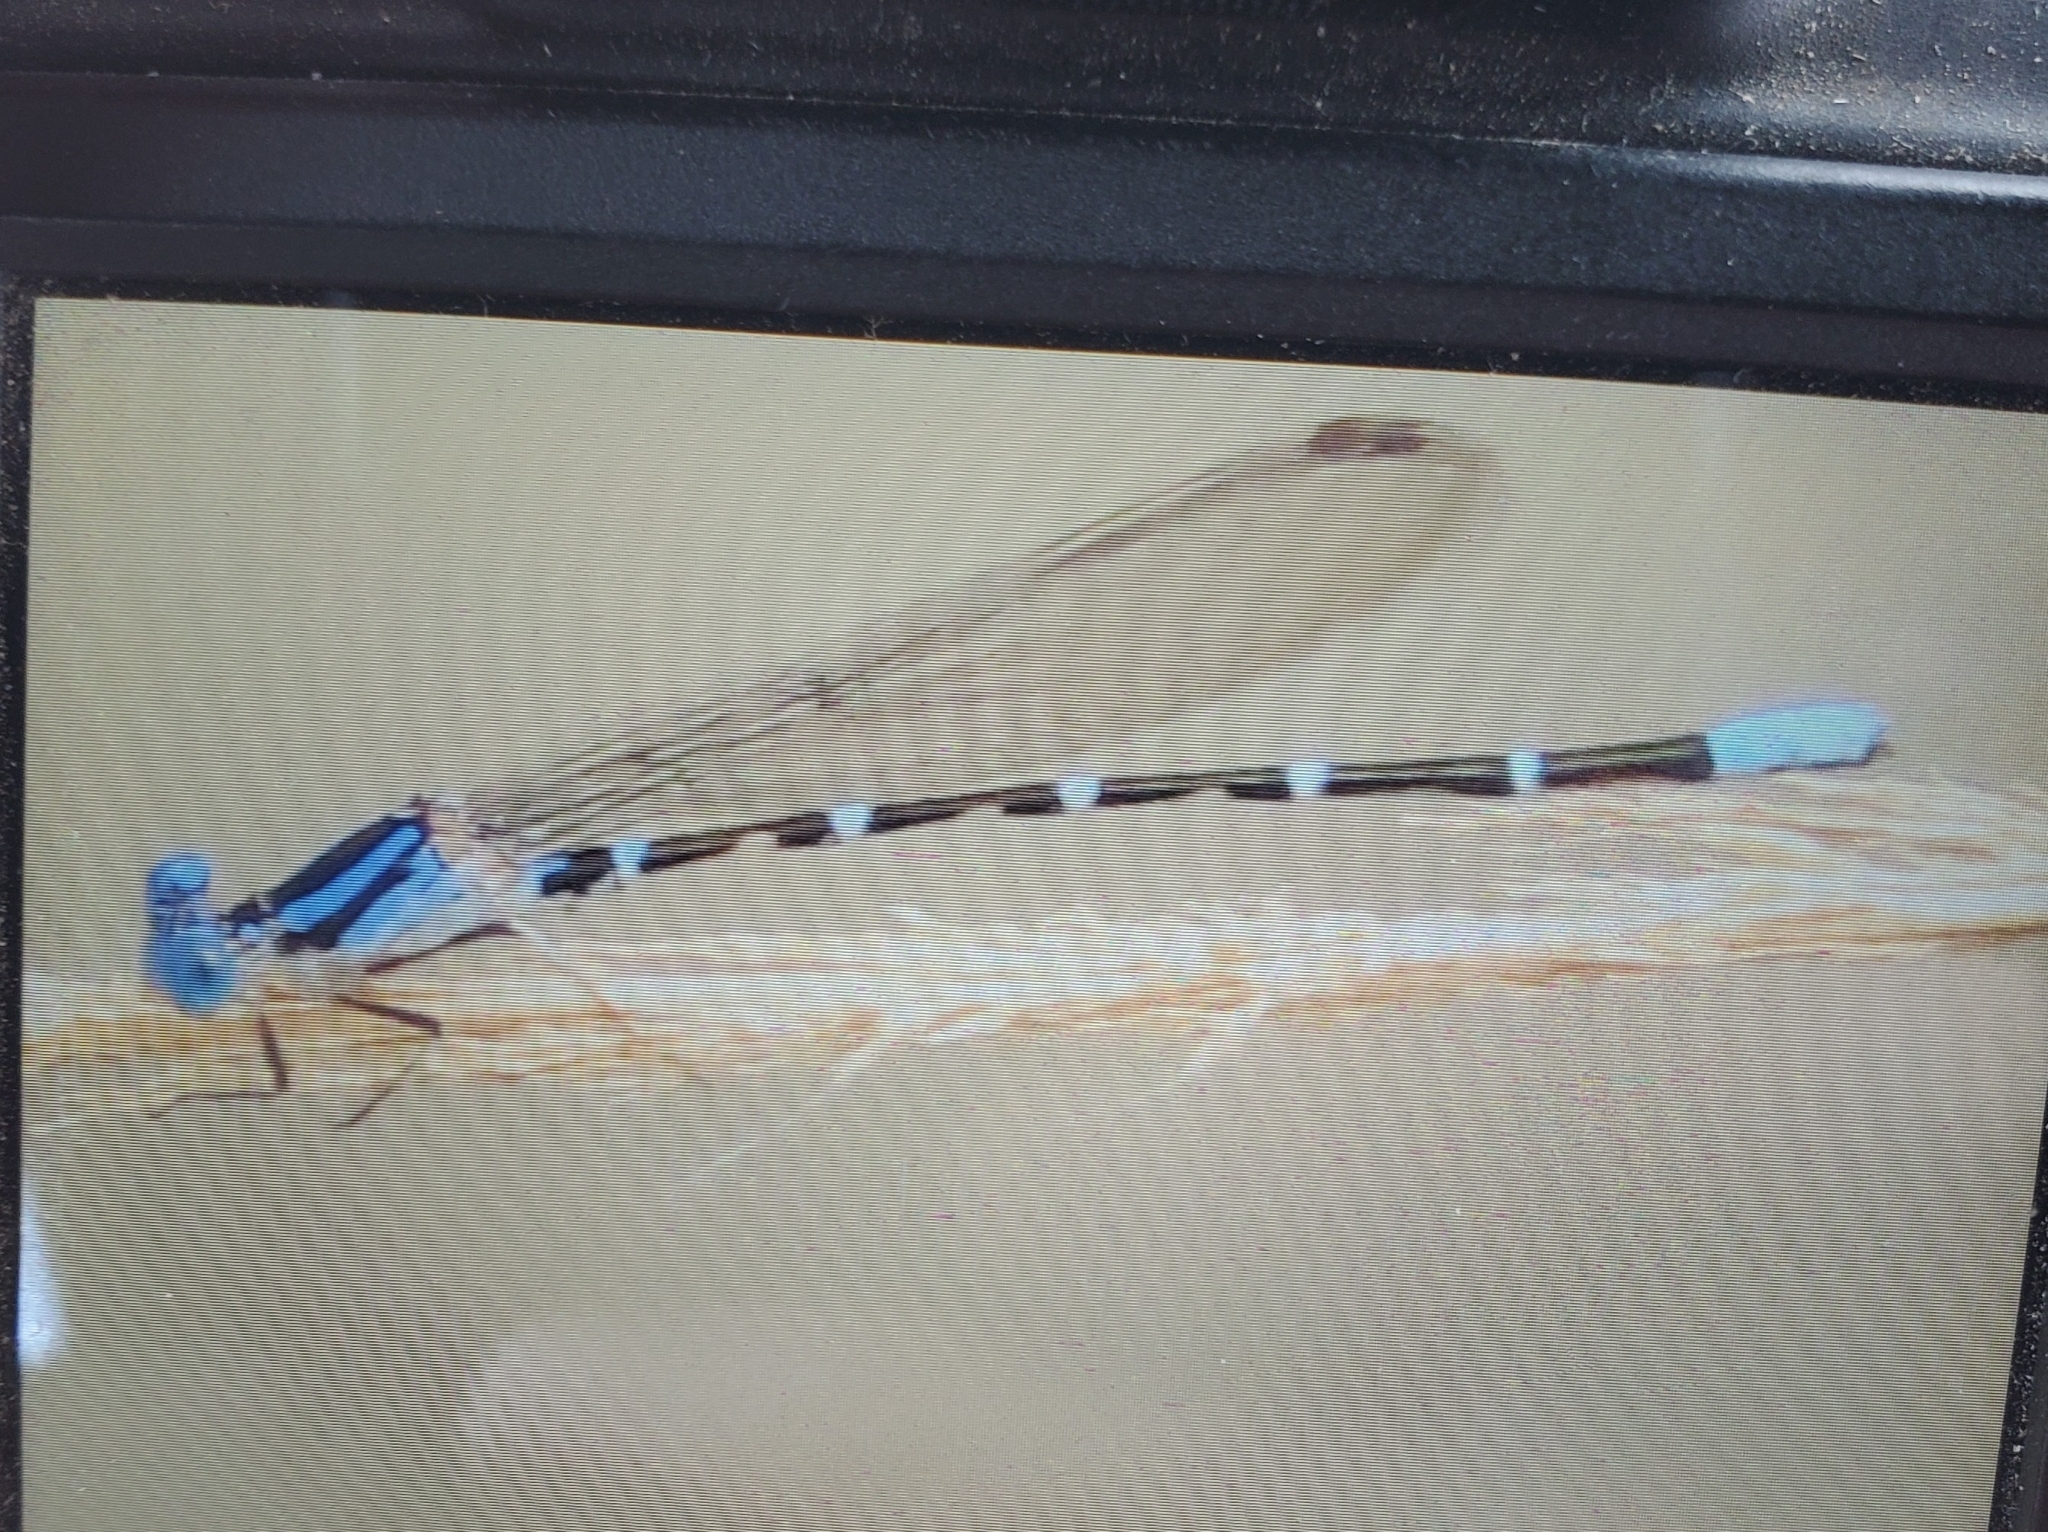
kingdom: Animalia
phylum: Arthropoda
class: Insecta
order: Odonata
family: Coenagrionidae
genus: Argia
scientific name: Argia sedula
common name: Blue-ringed dancer
